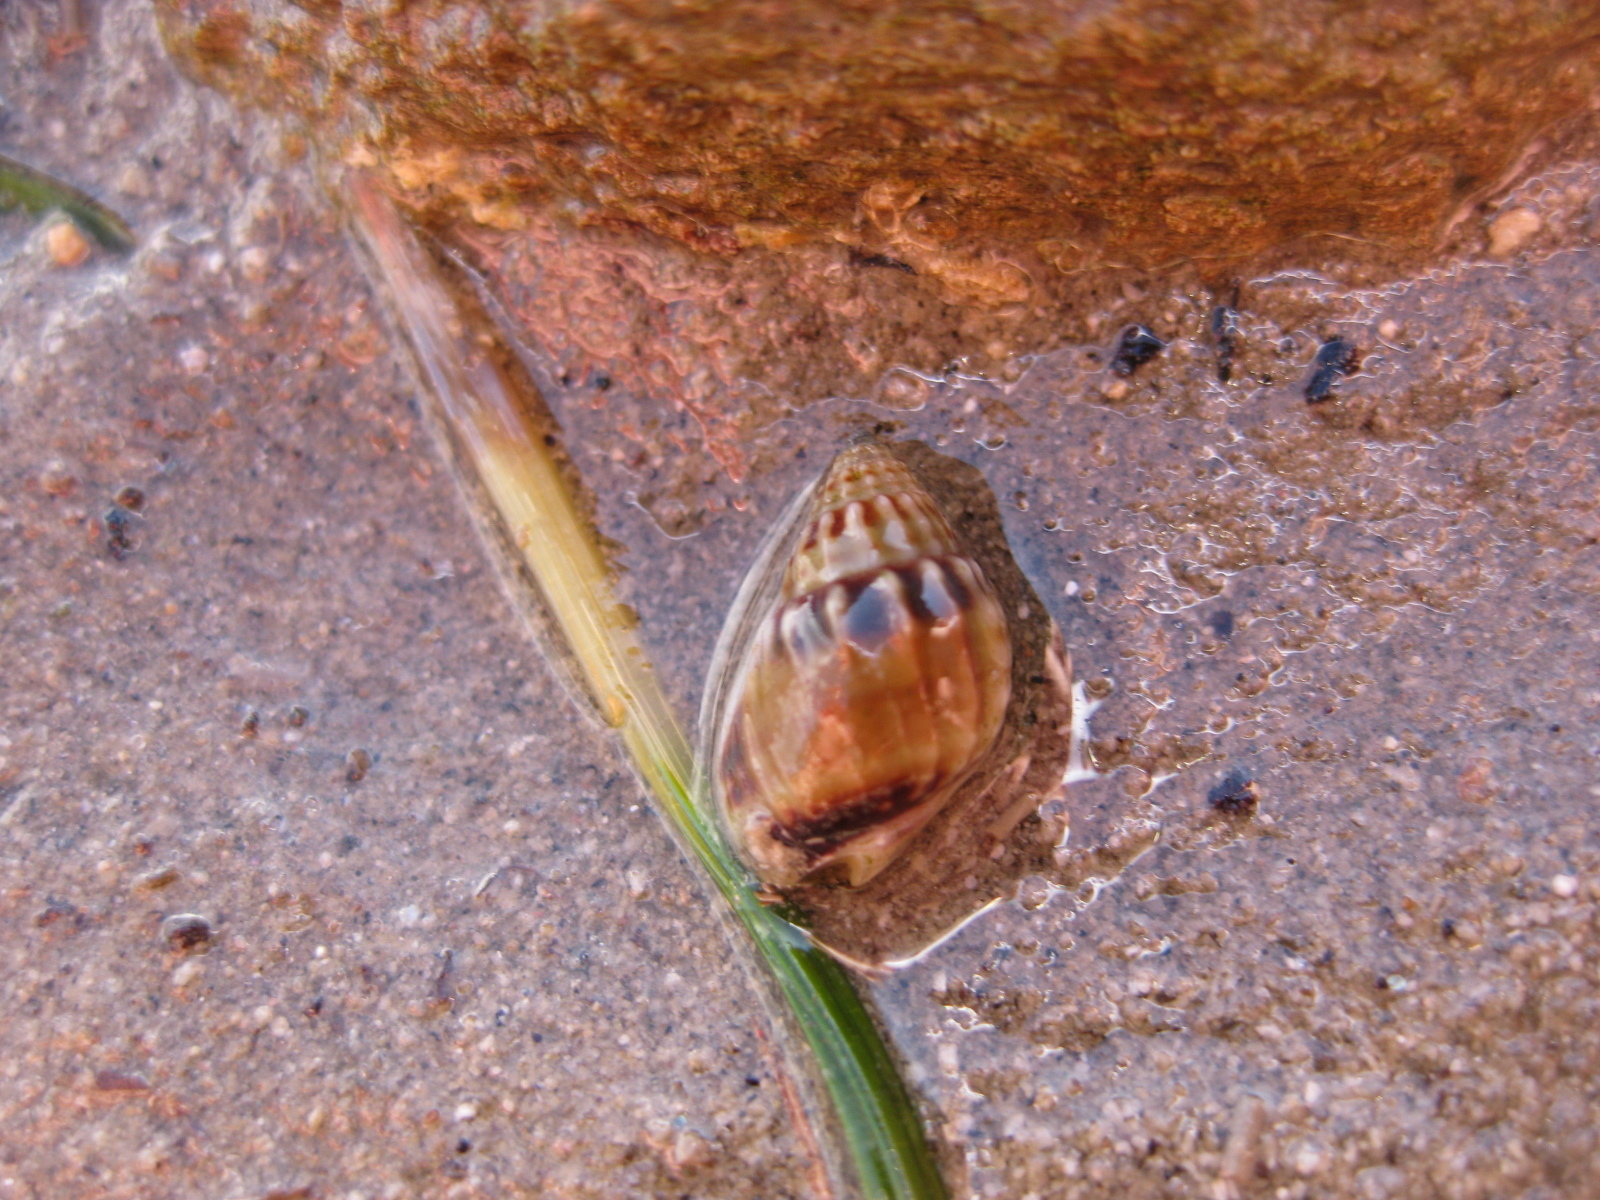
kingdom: Animalia
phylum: Mollusca
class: Gastropoda
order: Neogastropoda
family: Nassariidae
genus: Tritia
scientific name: Tritia burchardi
